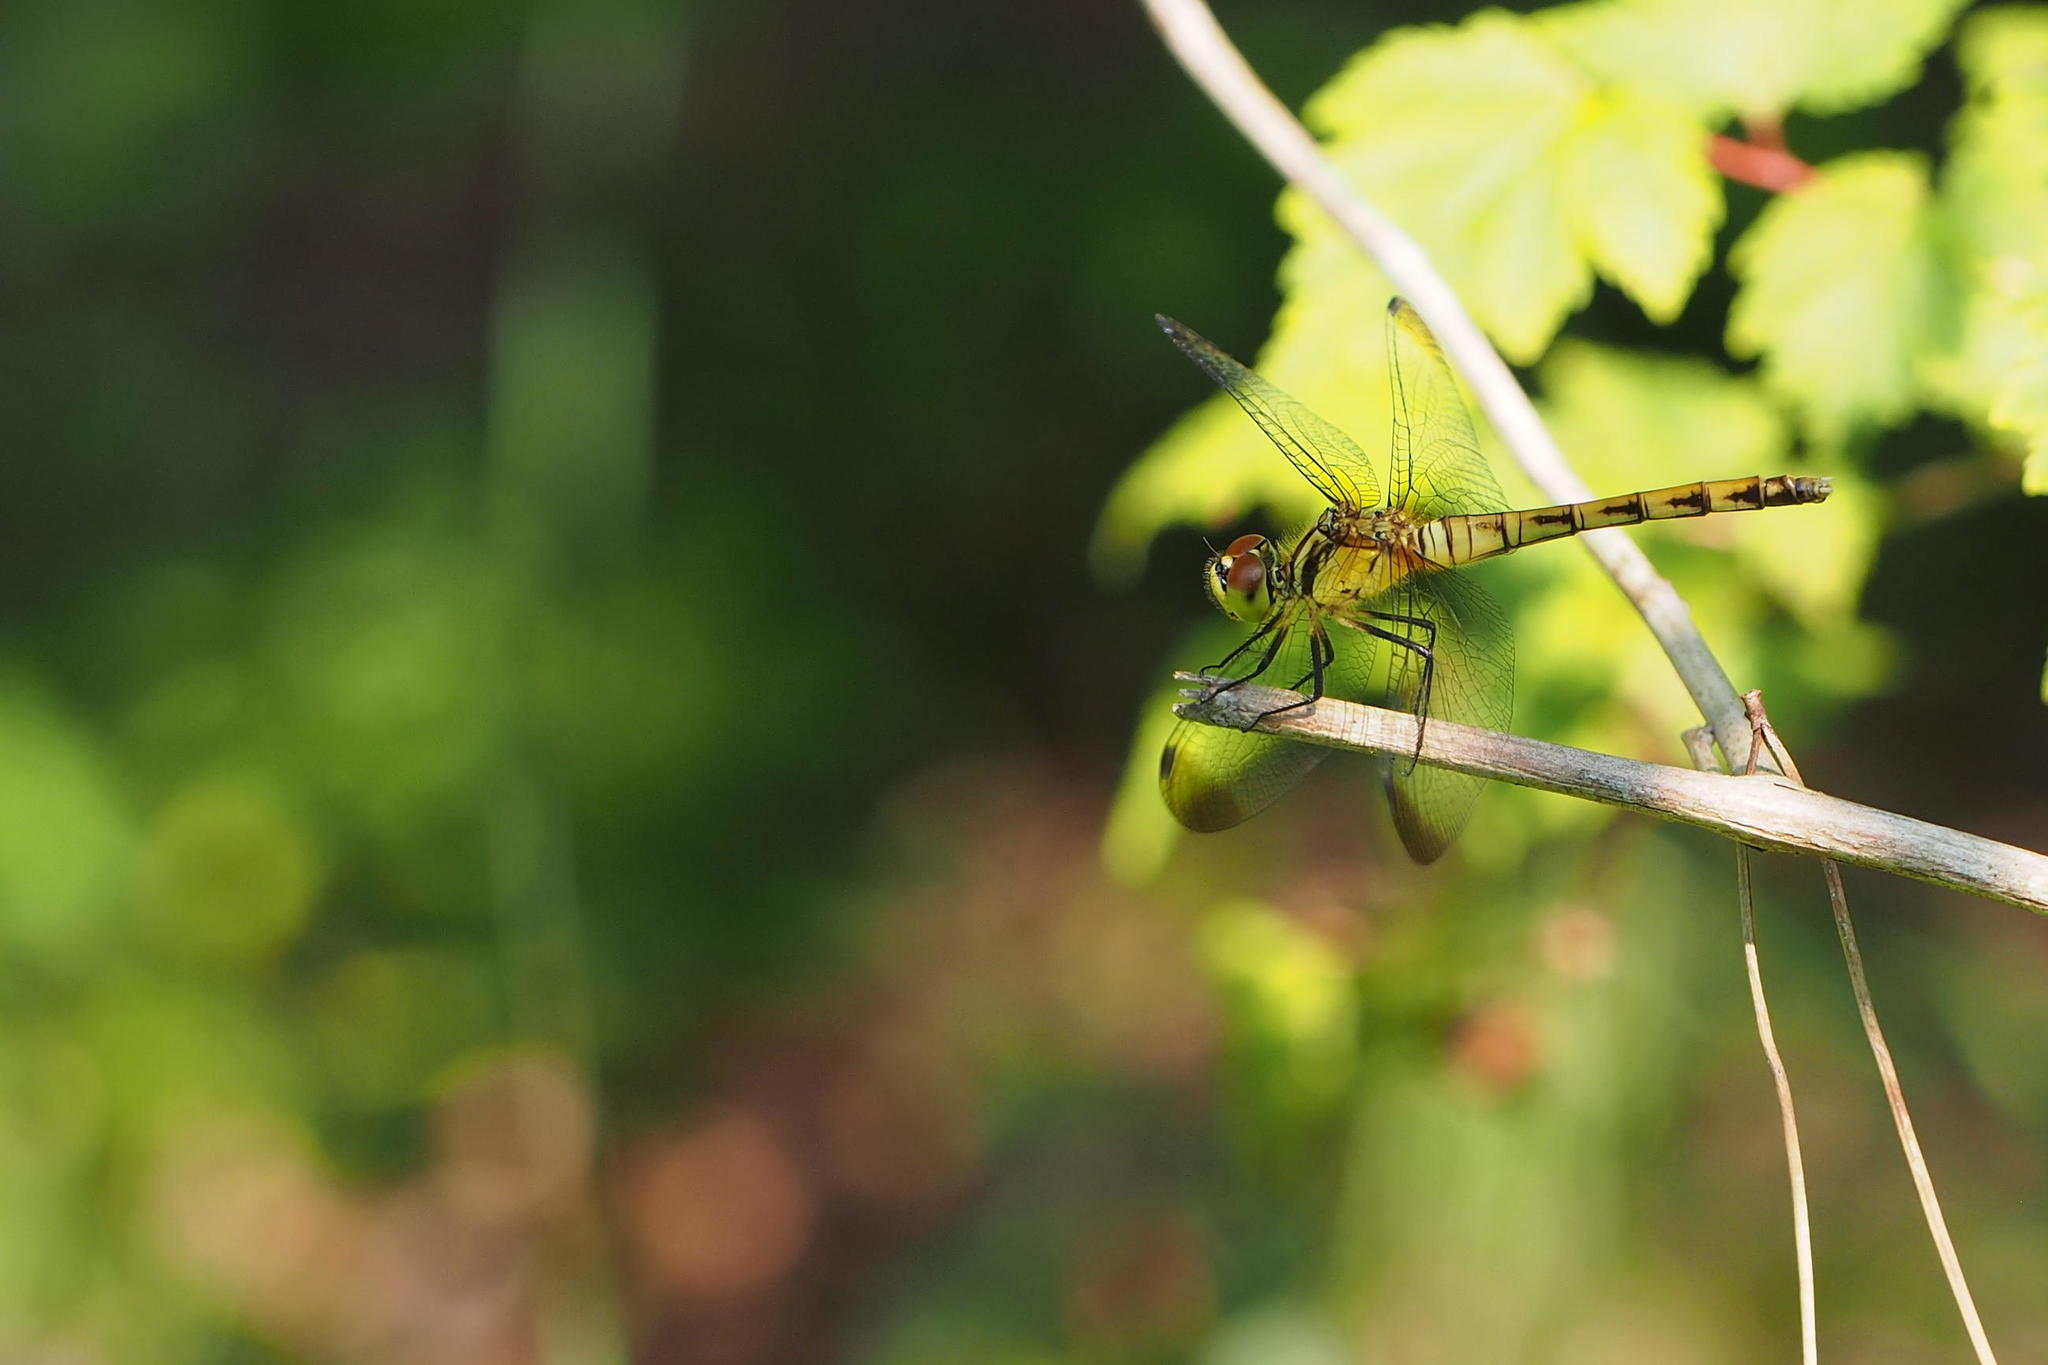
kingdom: Animalia
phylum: Arthropoda
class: Insecta
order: Odonata
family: Libellulidae
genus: Sympetrum
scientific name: Sympetrum eroticum
